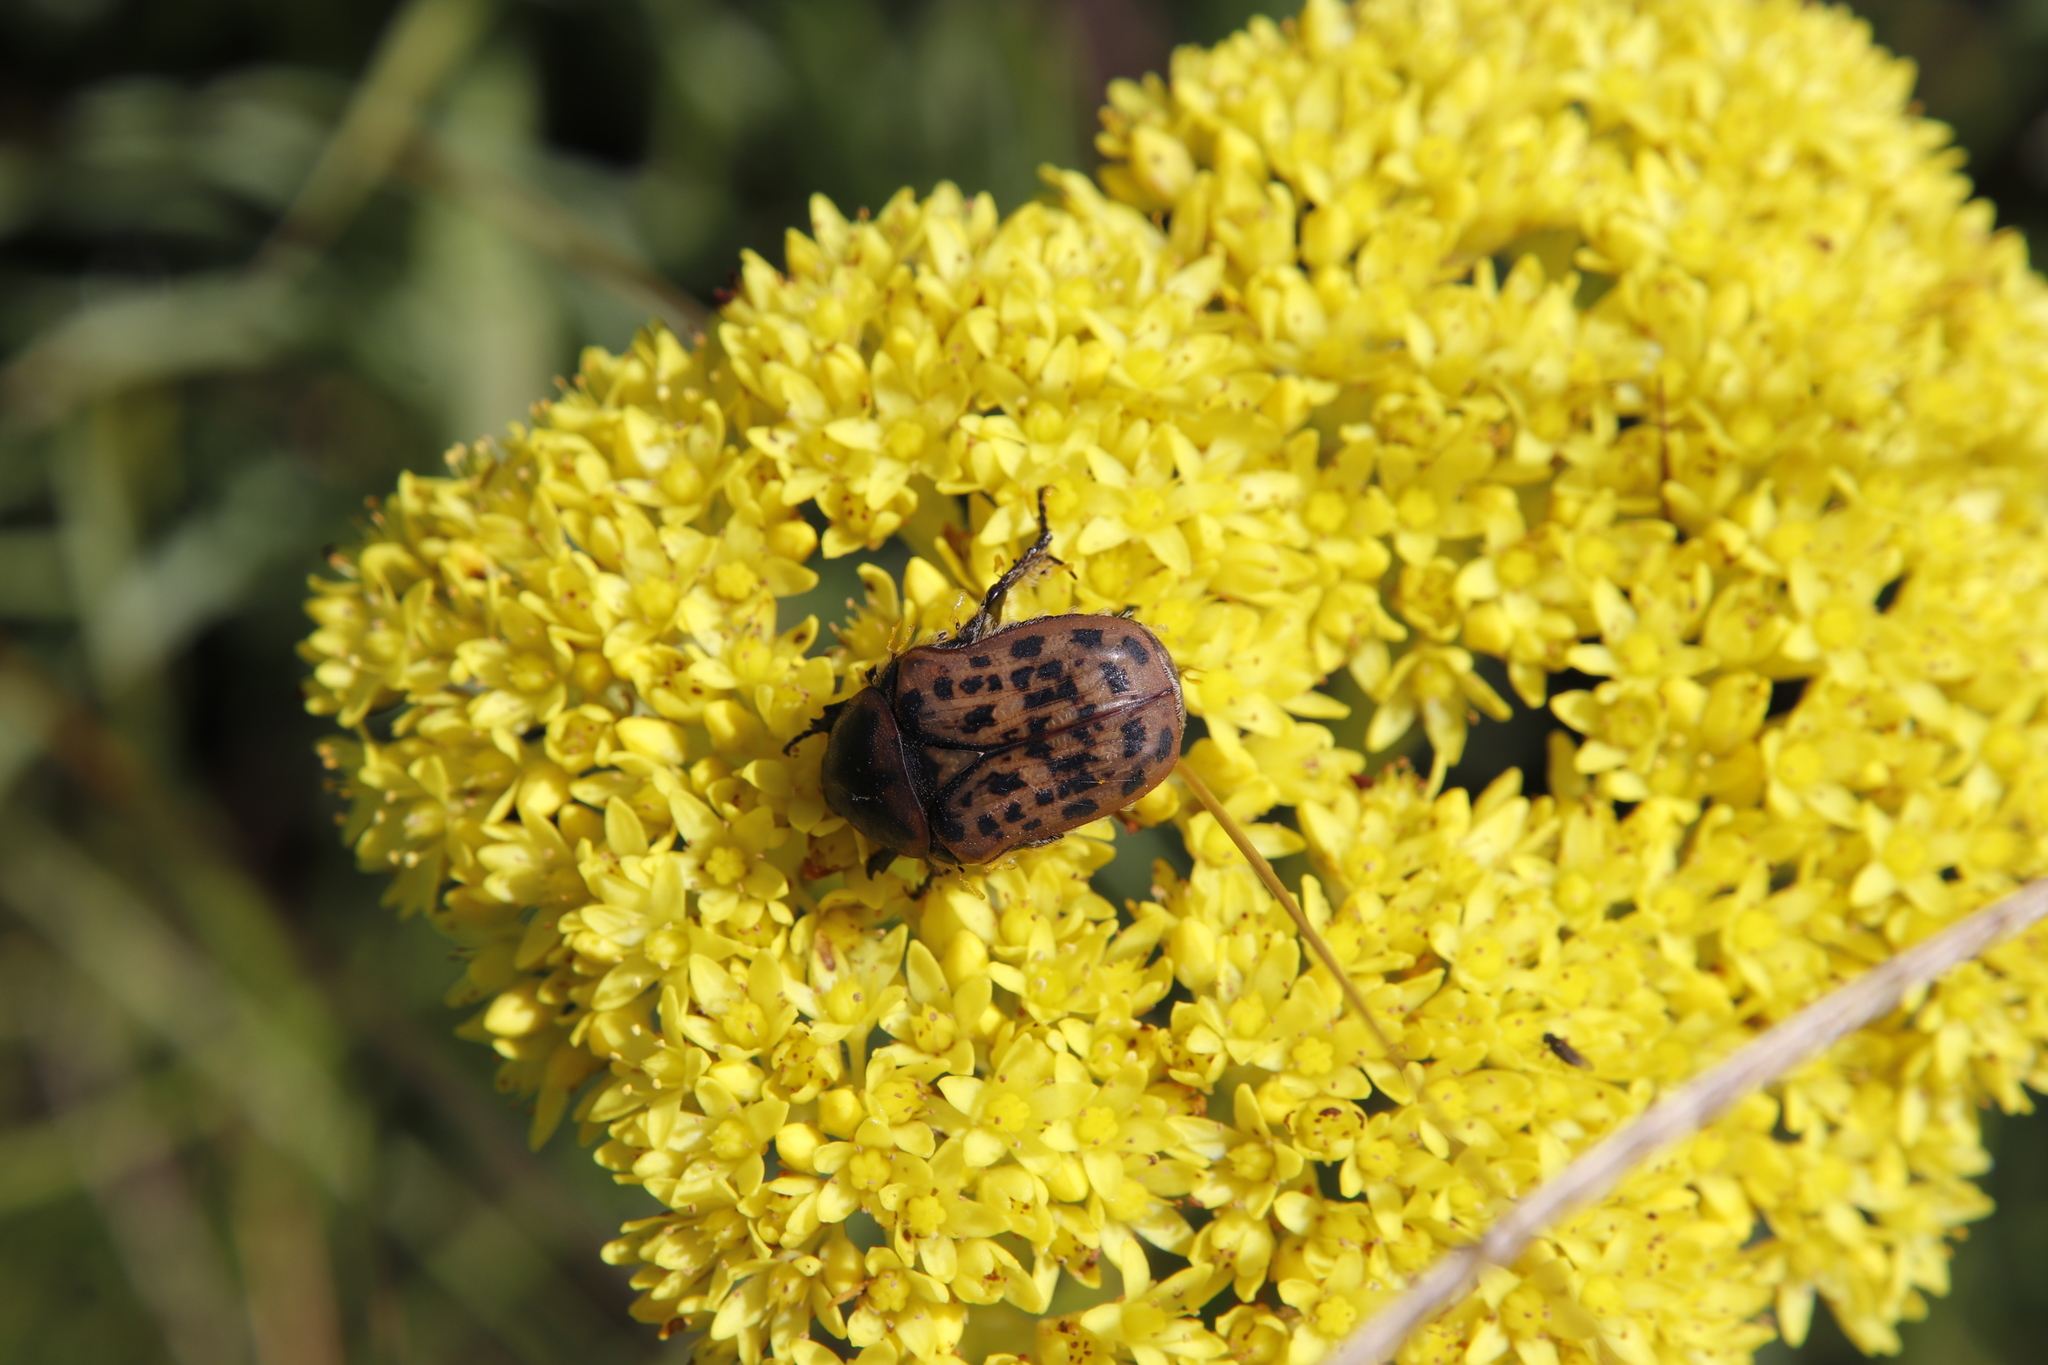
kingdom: Plantae
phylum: Tracheophyta
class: Magnoliopsida
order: Saxifragales
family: Crassulaceae
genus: Crassula
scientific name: Crassula vaginata
